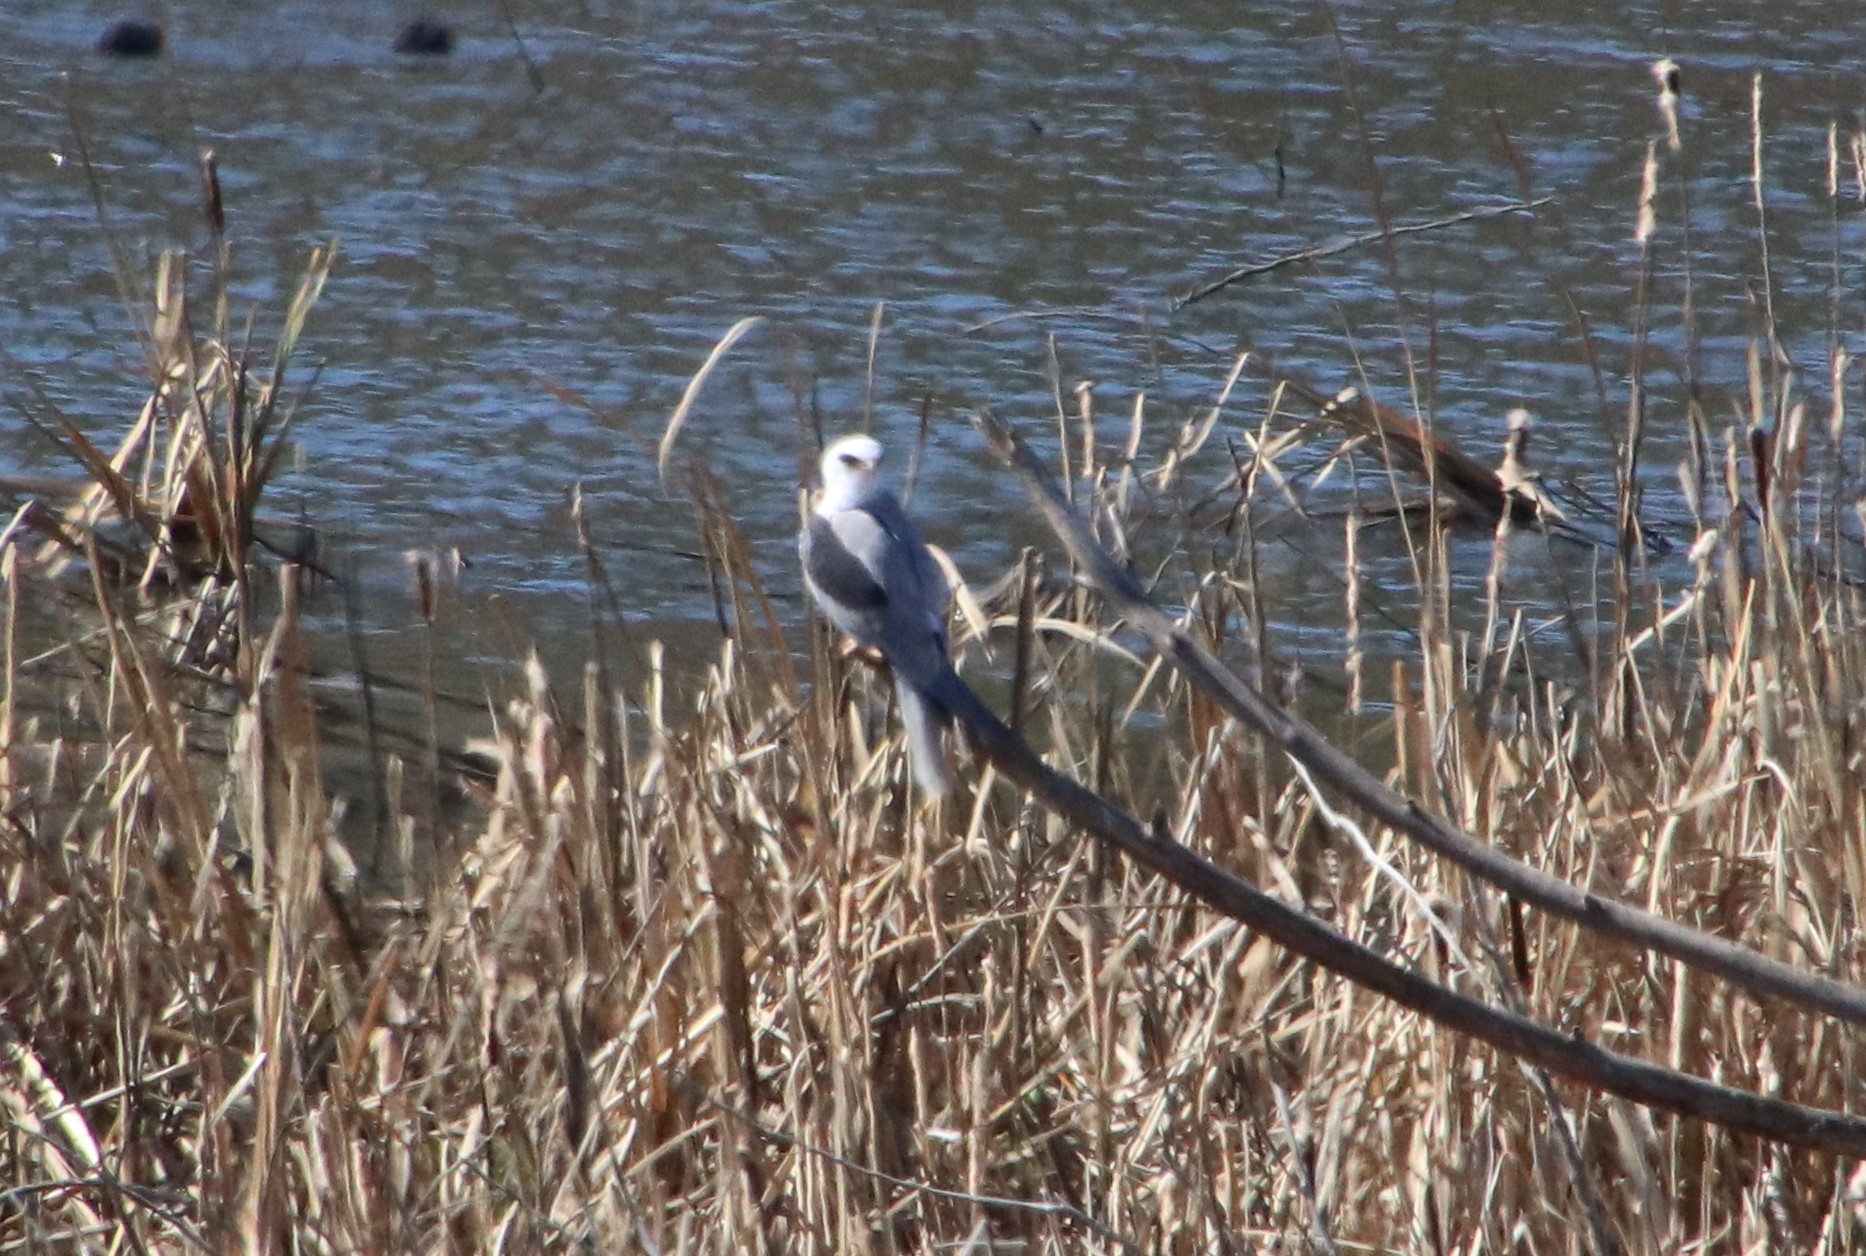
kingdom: Animalia
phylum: Chordata
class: Aves
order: Accipitriformes
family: Accipitridae
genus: Elanus
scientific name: Elanus leucurus
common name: White-tailed kite
